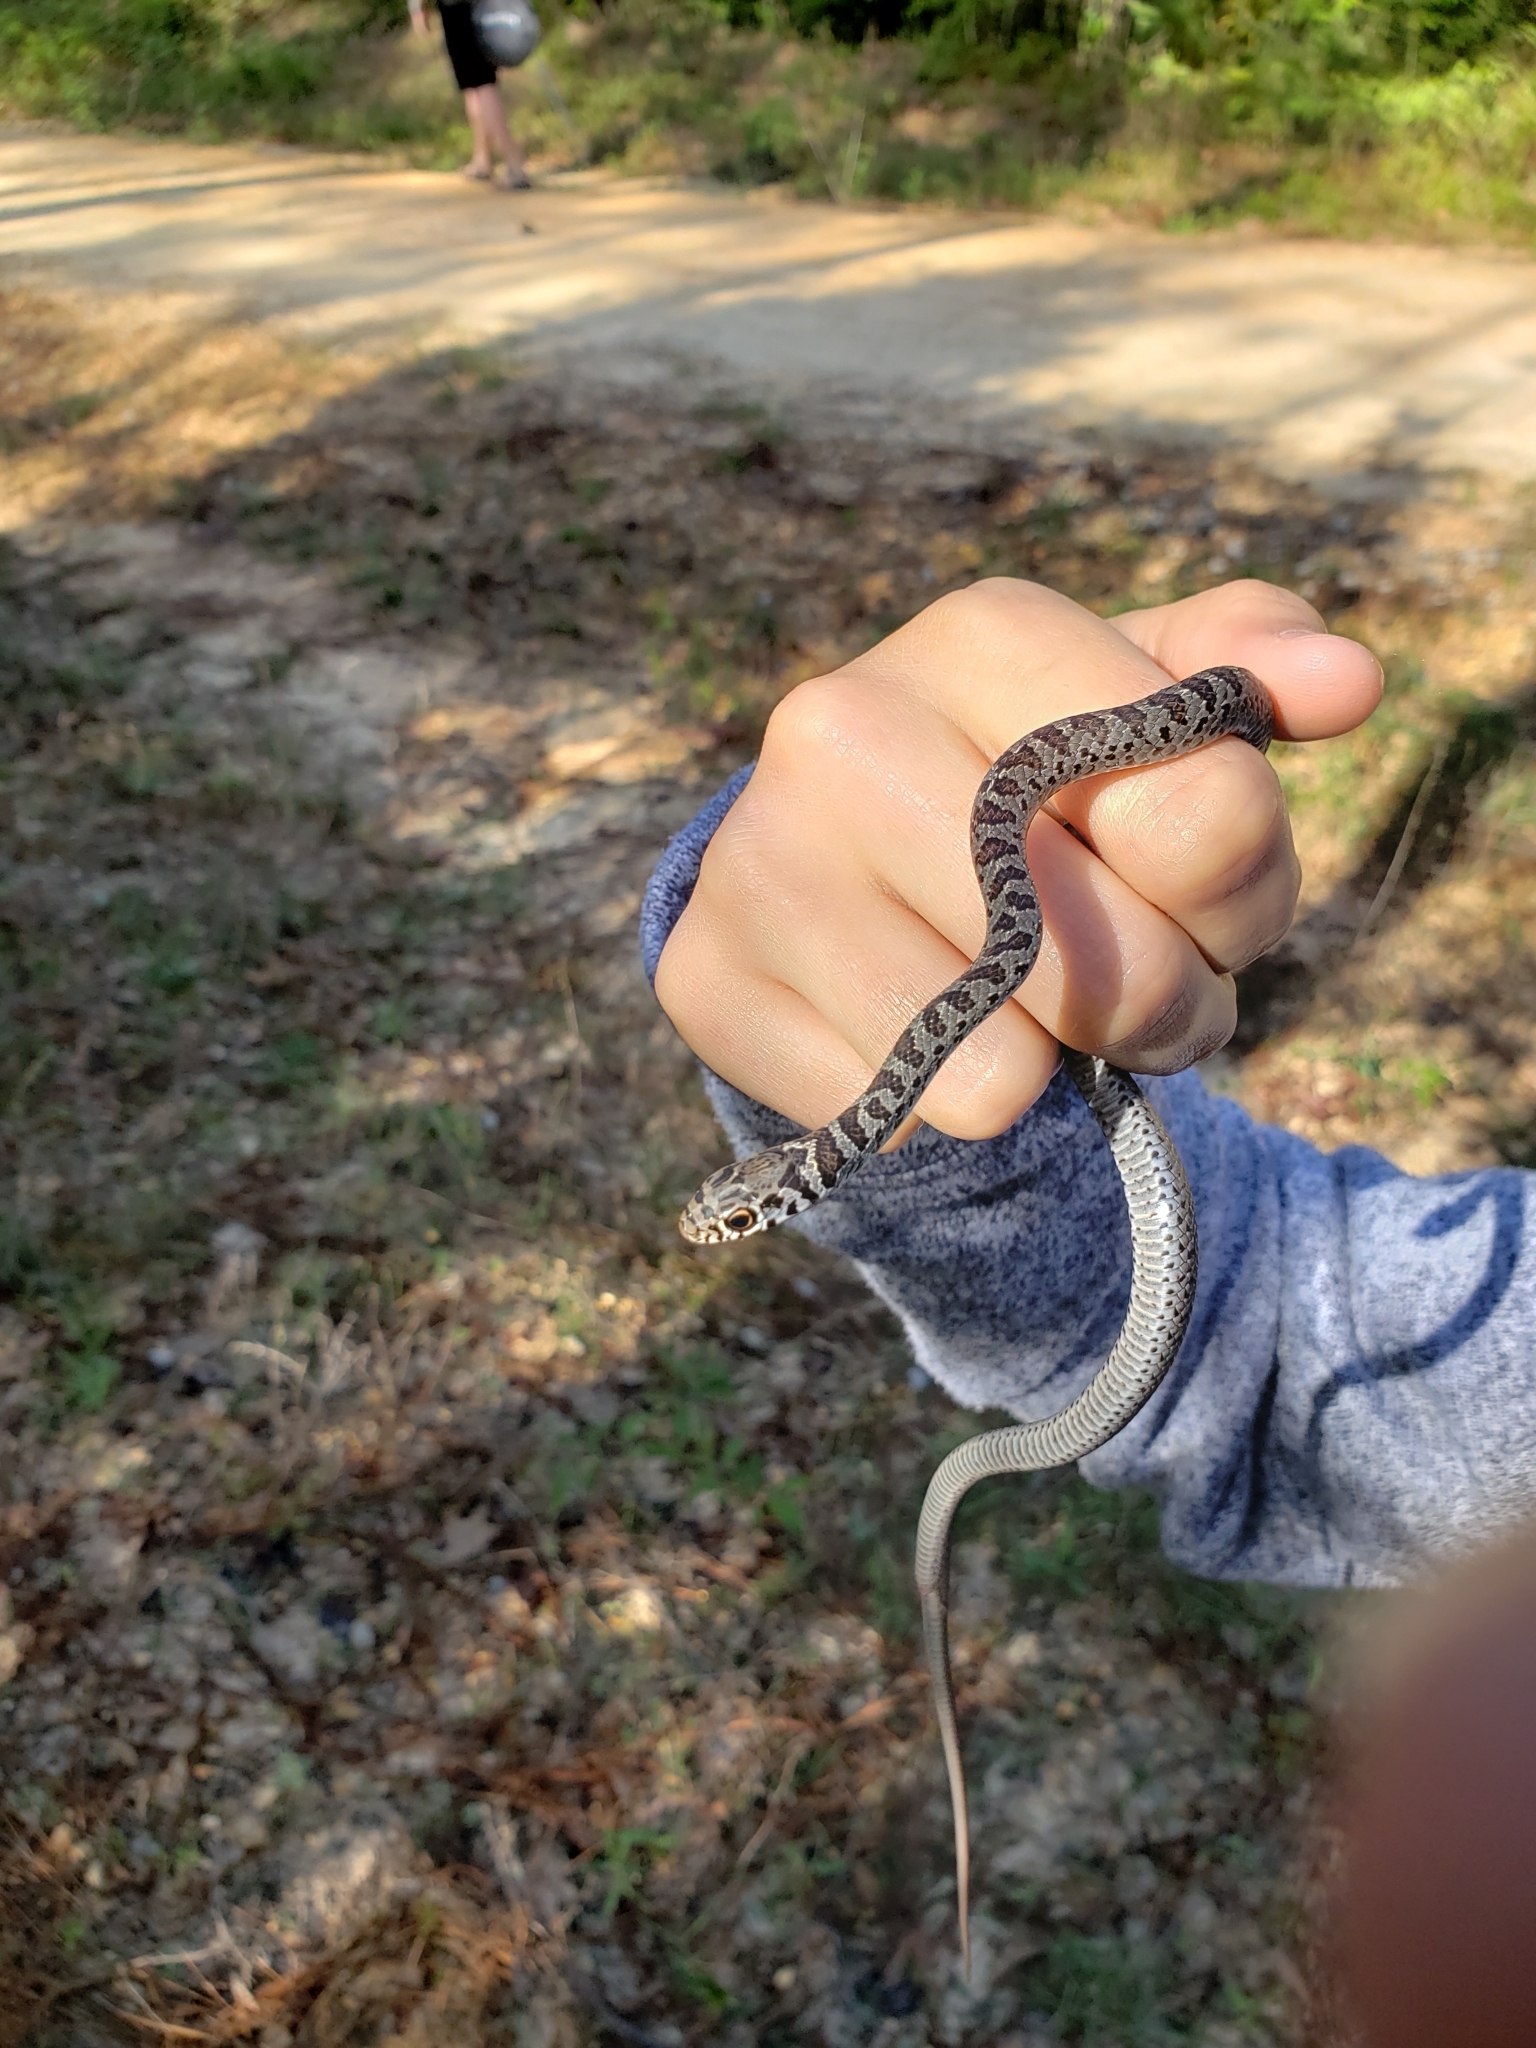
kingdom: Animalia
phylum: Chordata
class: Squamata
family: Colubridae
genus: Coluber
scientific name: Coluber constrictor
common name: Eastern racer
